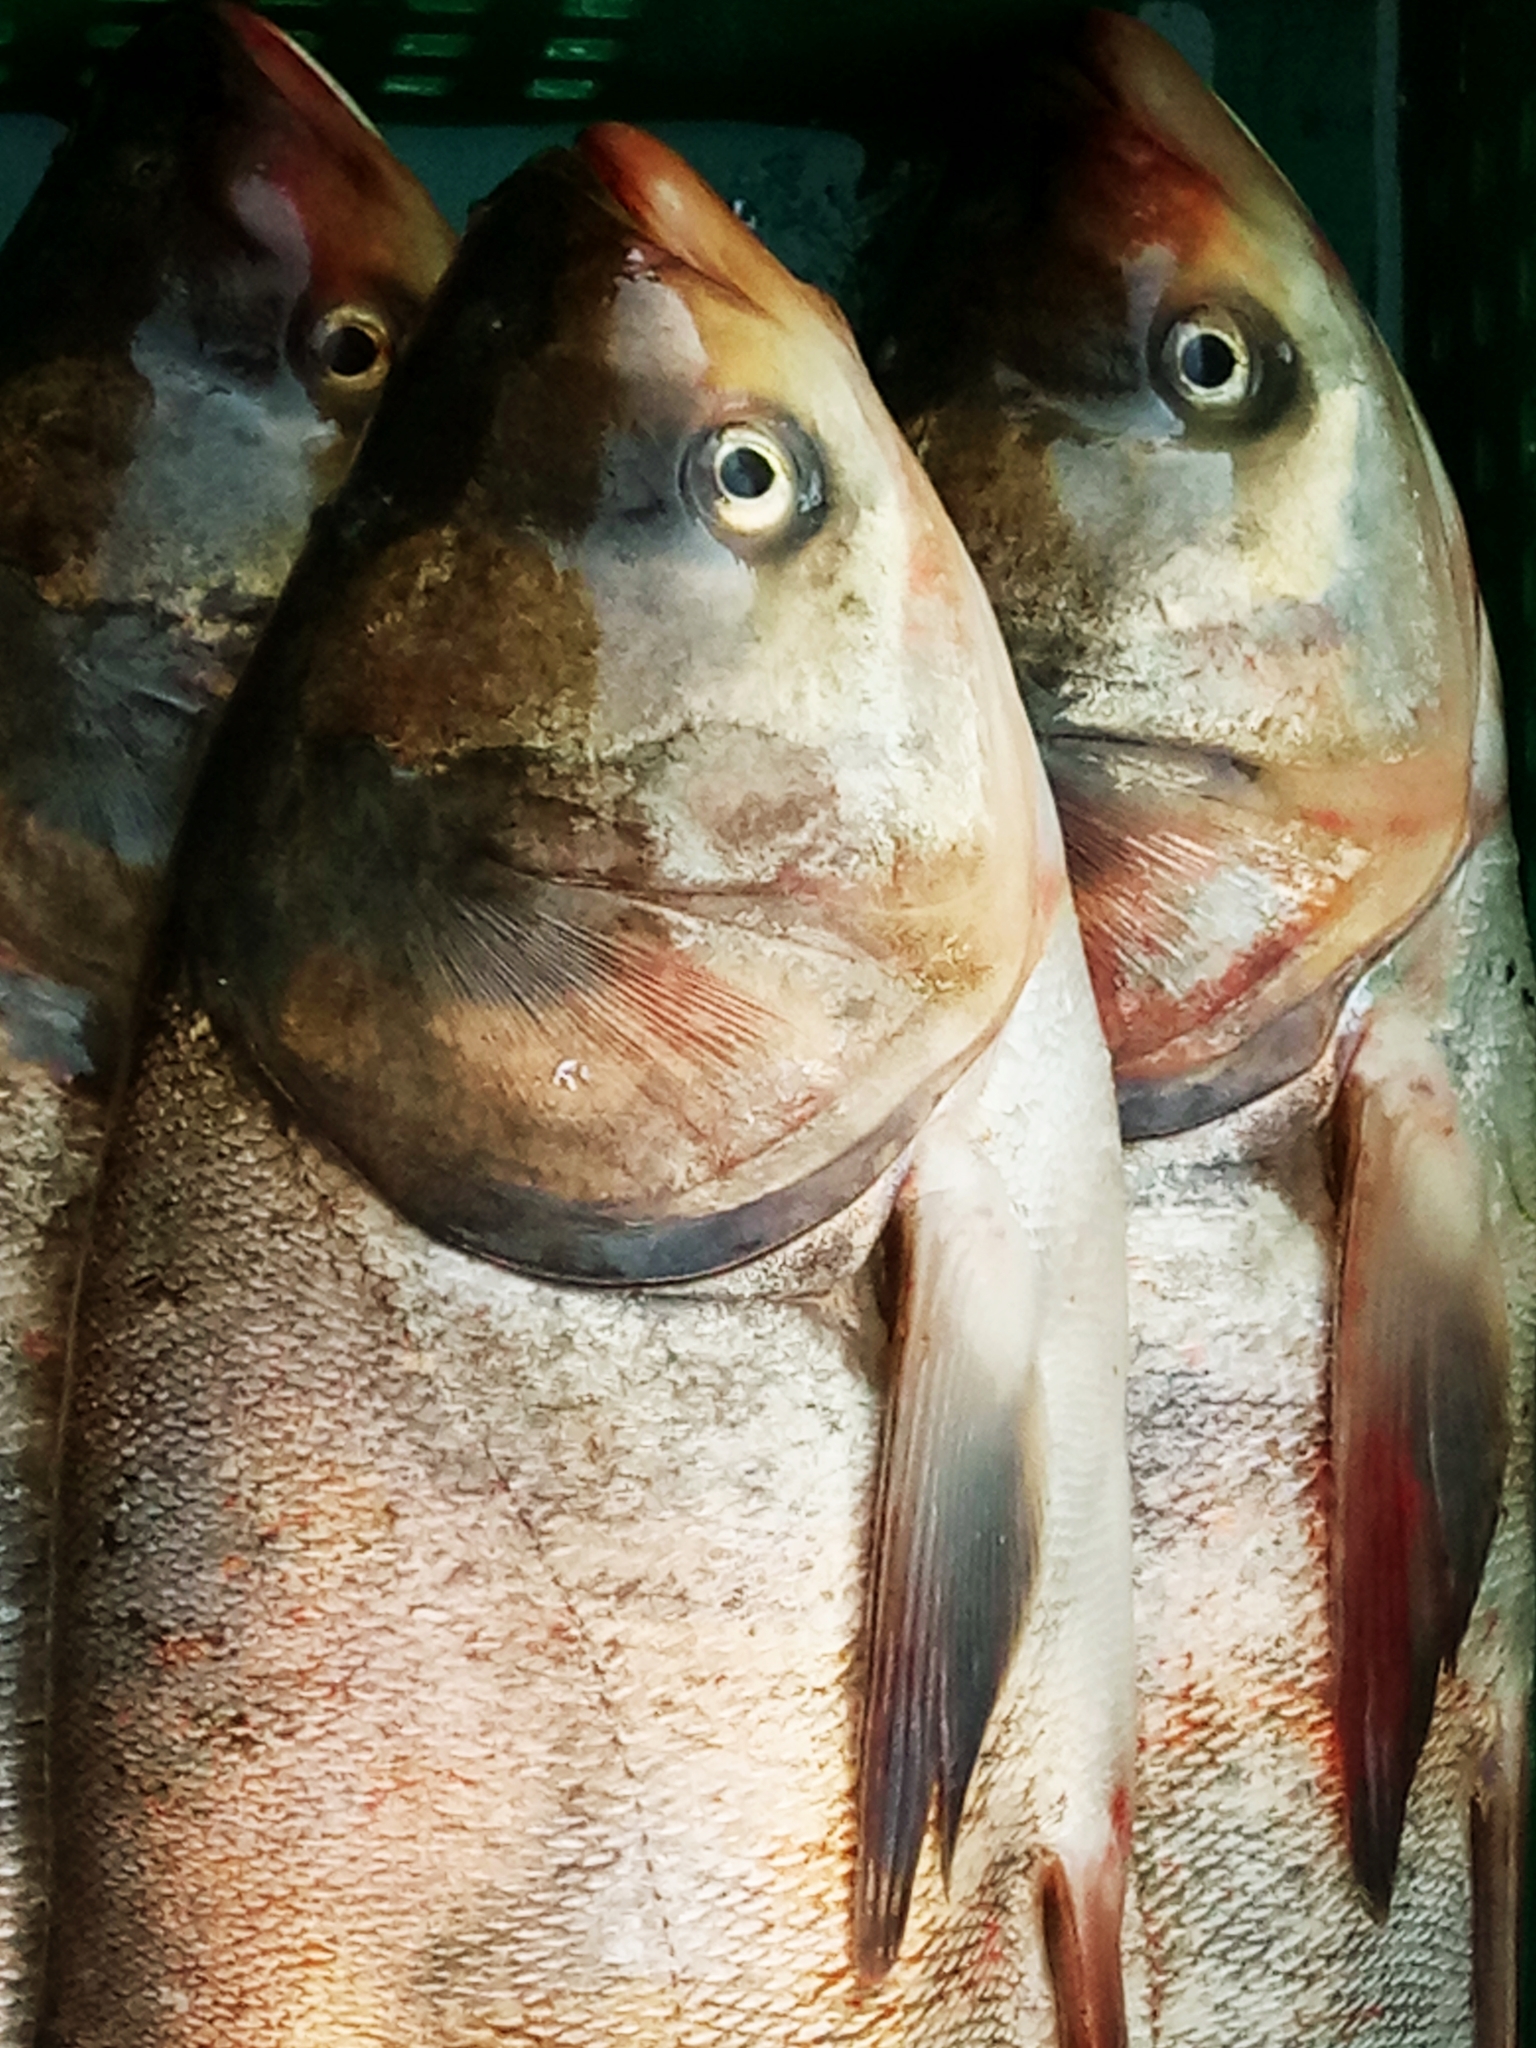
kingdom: Animalia
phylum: Chordata
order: Cypriniformes
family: Cyprinidae
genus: Hypophthalmichthys
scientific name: Hypophthalmichthys molitrix
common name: Silver carp
